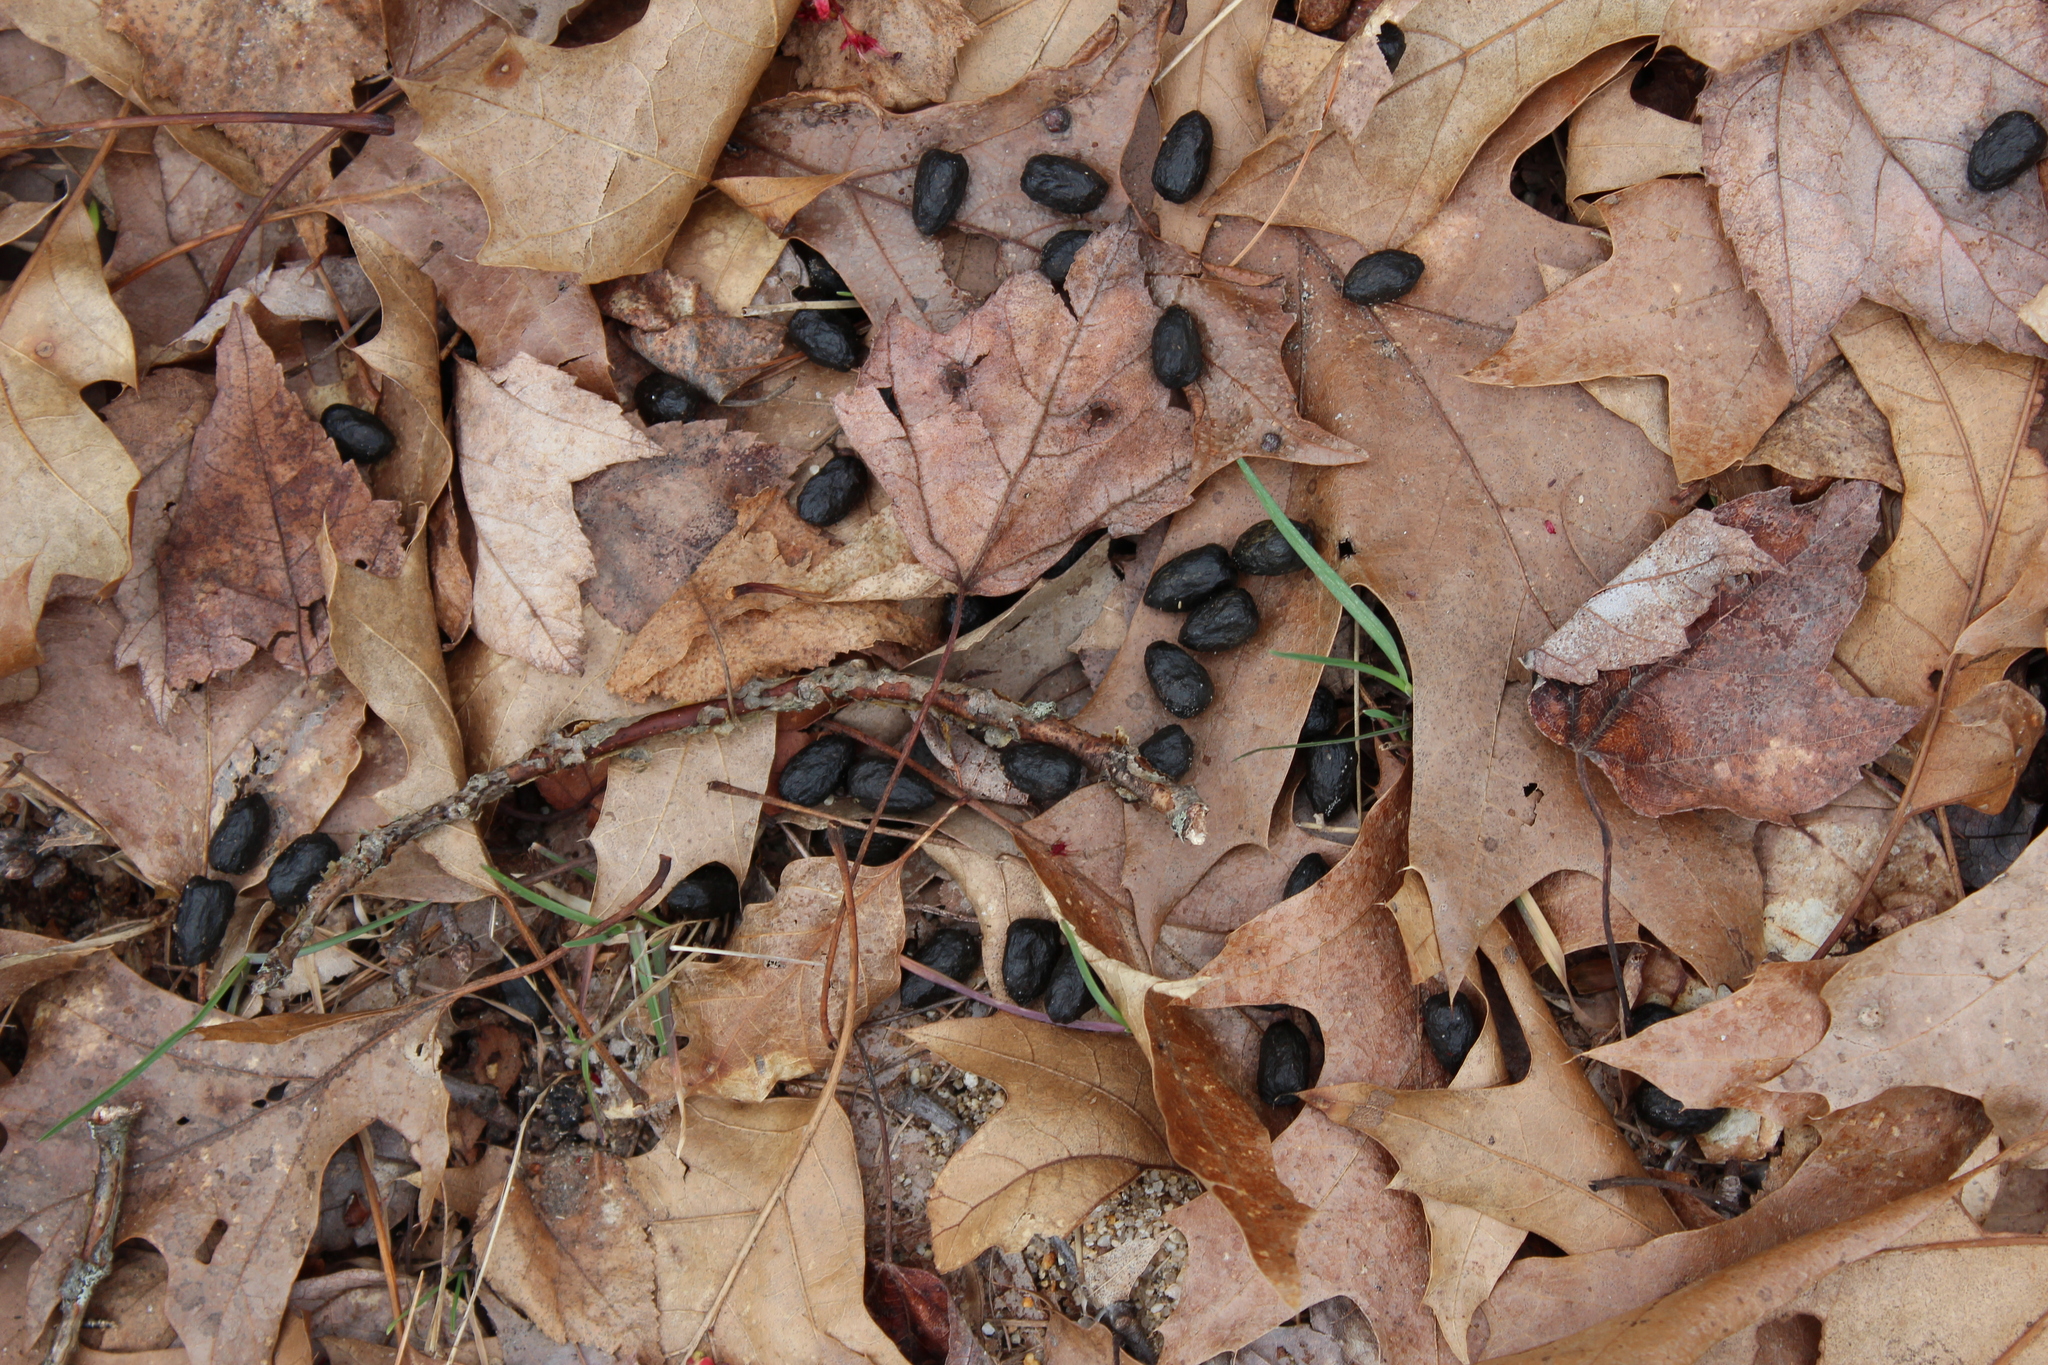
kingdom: Animalia
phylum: Chordata
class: Mammalia
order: Artiodactyla
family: Cervidae
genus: Odocoileus
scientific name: Odocoileus virginianus
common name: White-tailed deer
